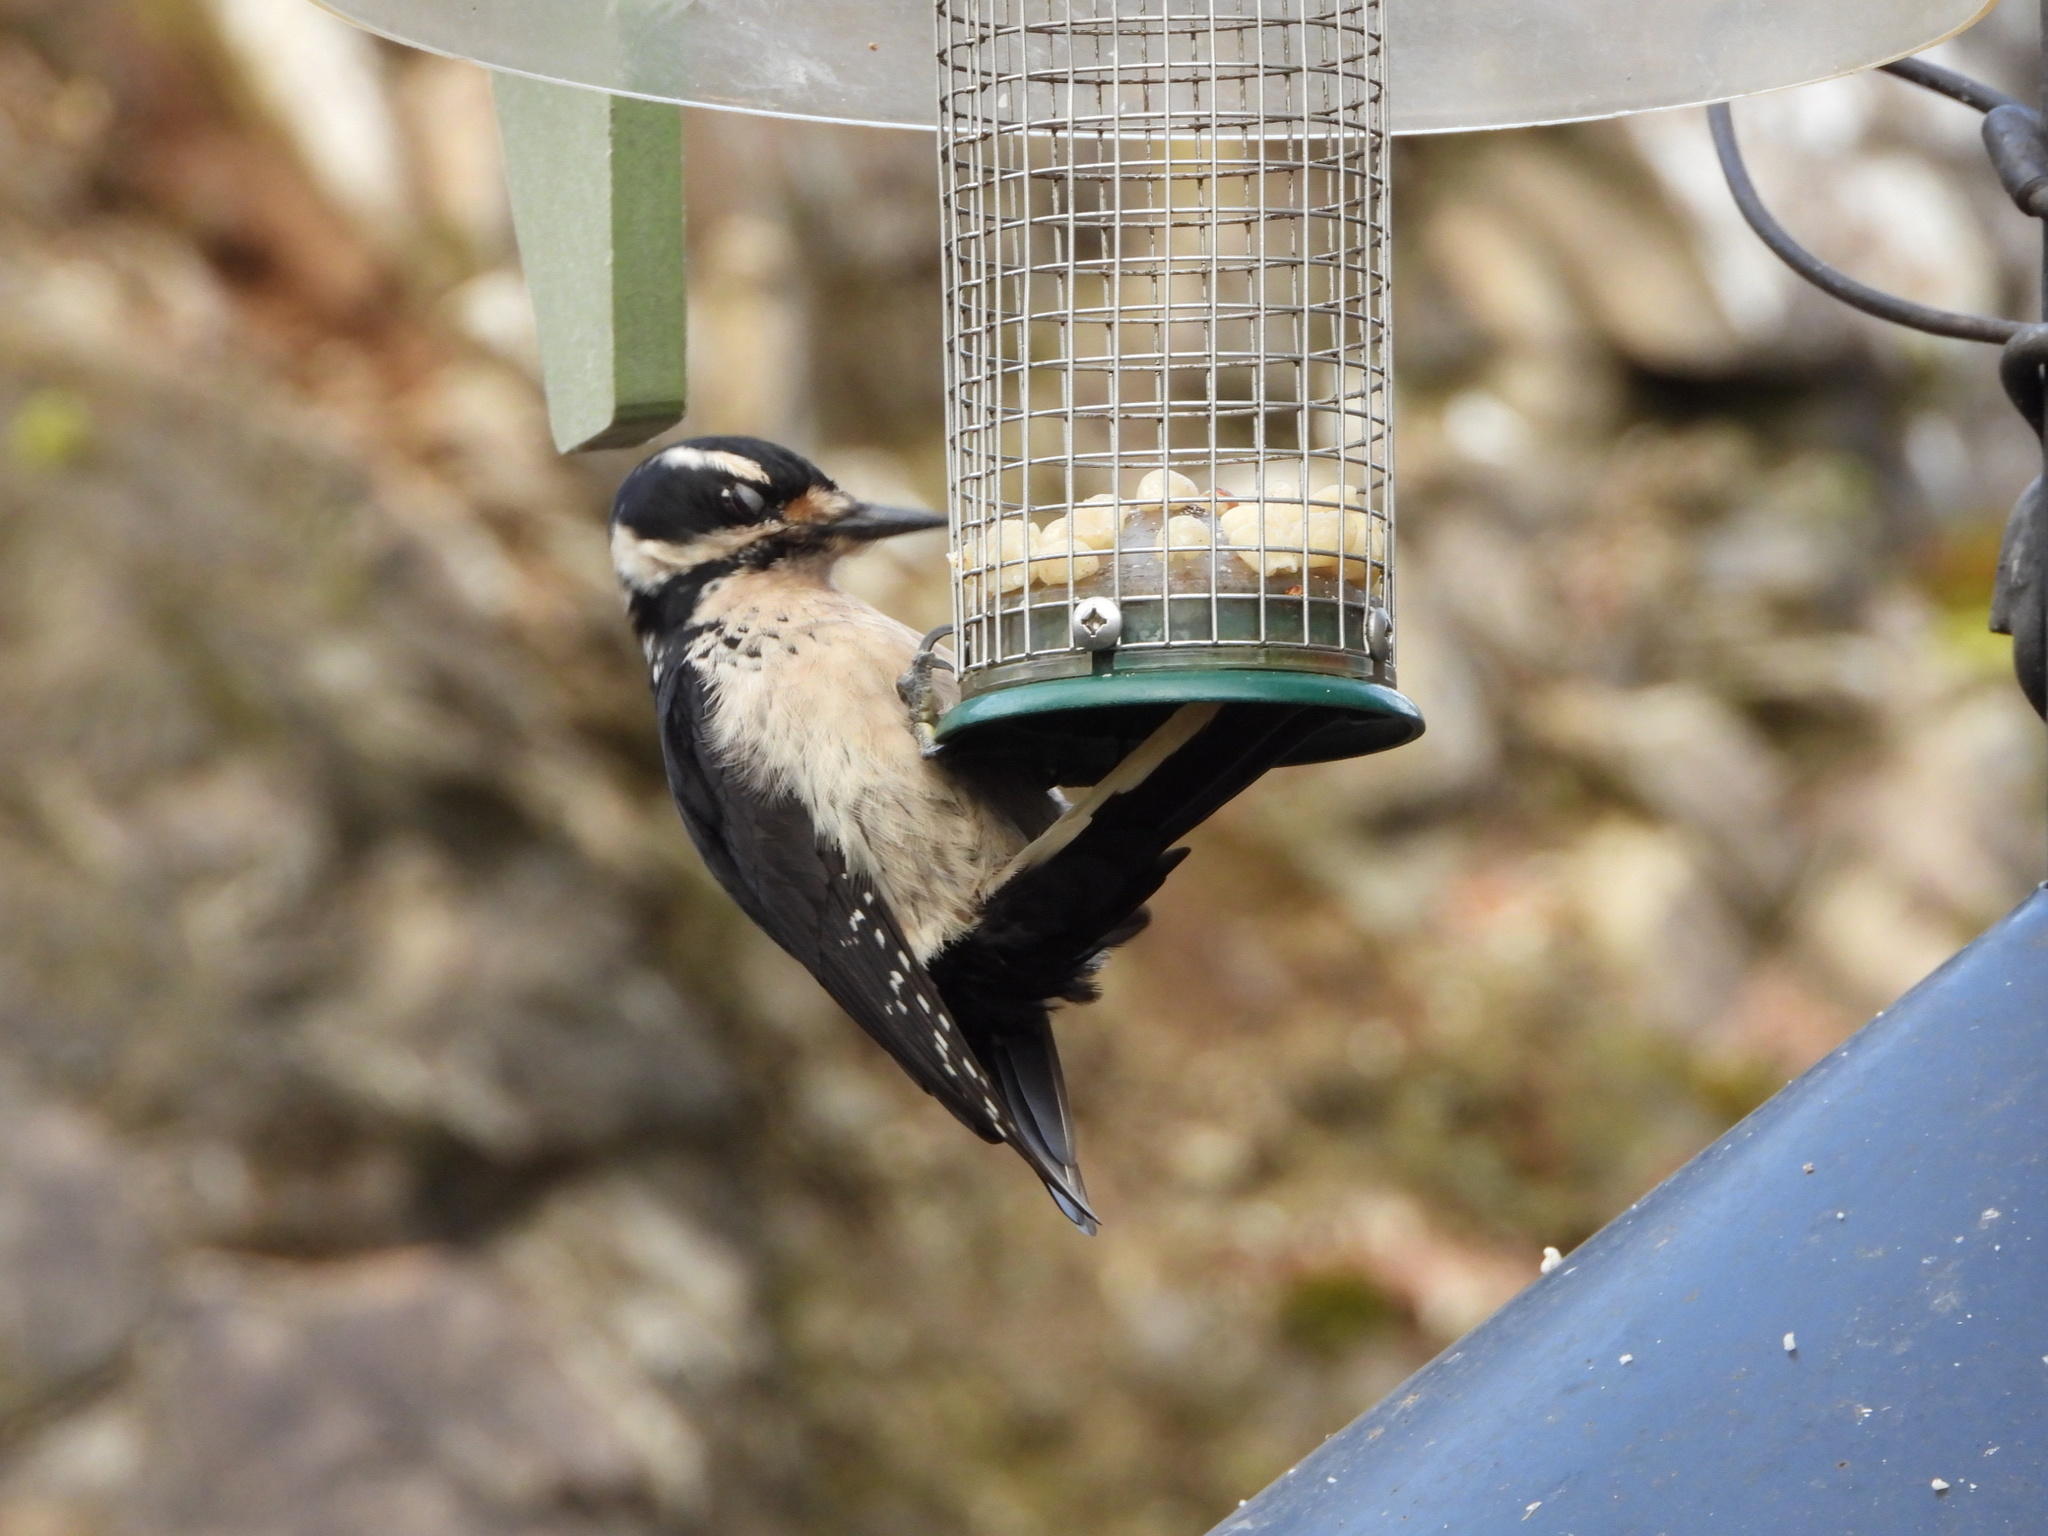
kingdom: Animalia
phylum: Chordata
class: Aves
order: Piciformes
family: Picidae
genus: Leuconotopicus
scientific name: Leuconotopicus villosus
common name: Hairy woodpecker
